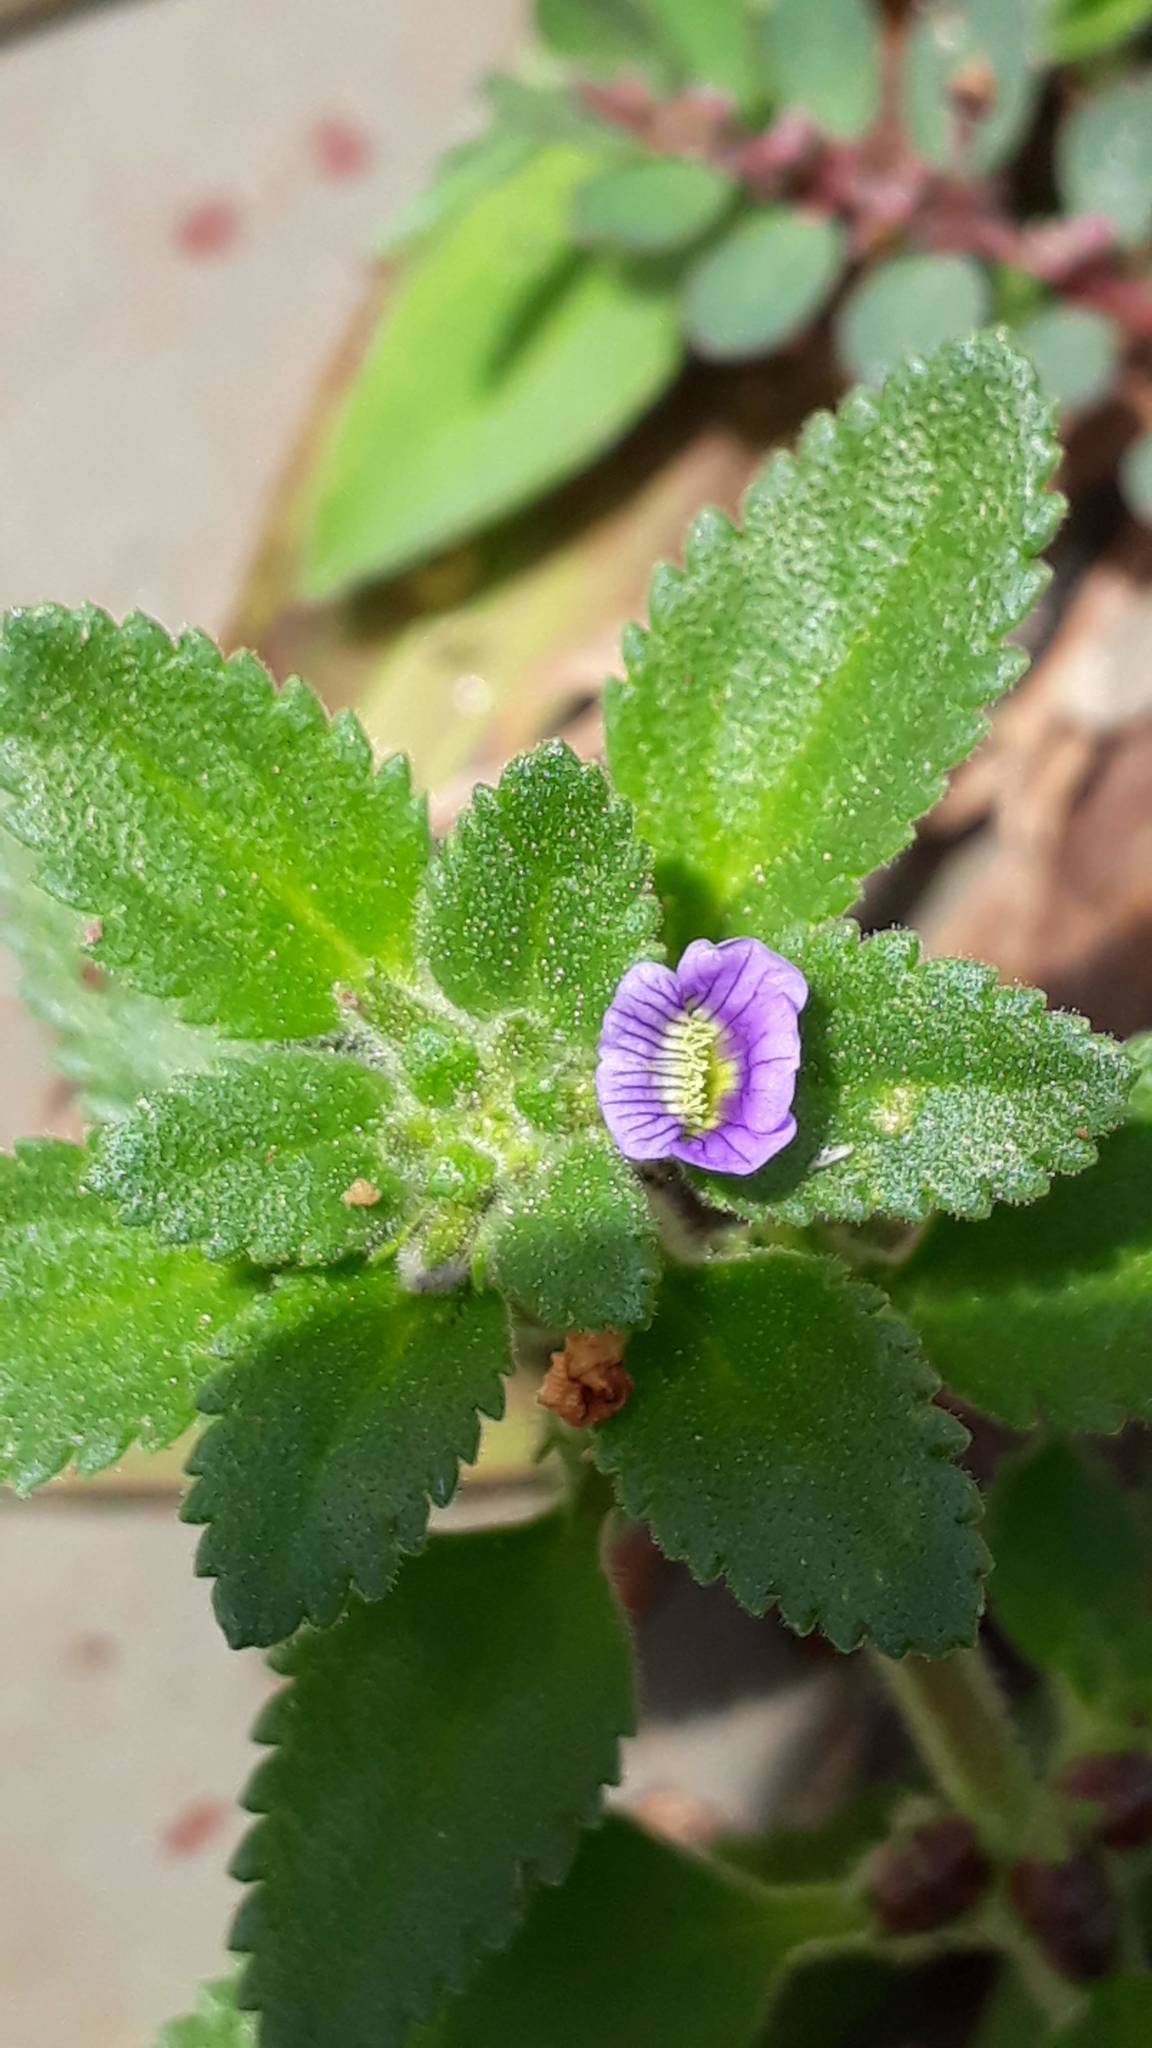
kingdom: Plantae
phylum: Tracheophyta
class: Magnoliopsida
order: Lamiales
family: Plantaginaceae
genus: Stemodia
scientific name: Stemodia verticillata
